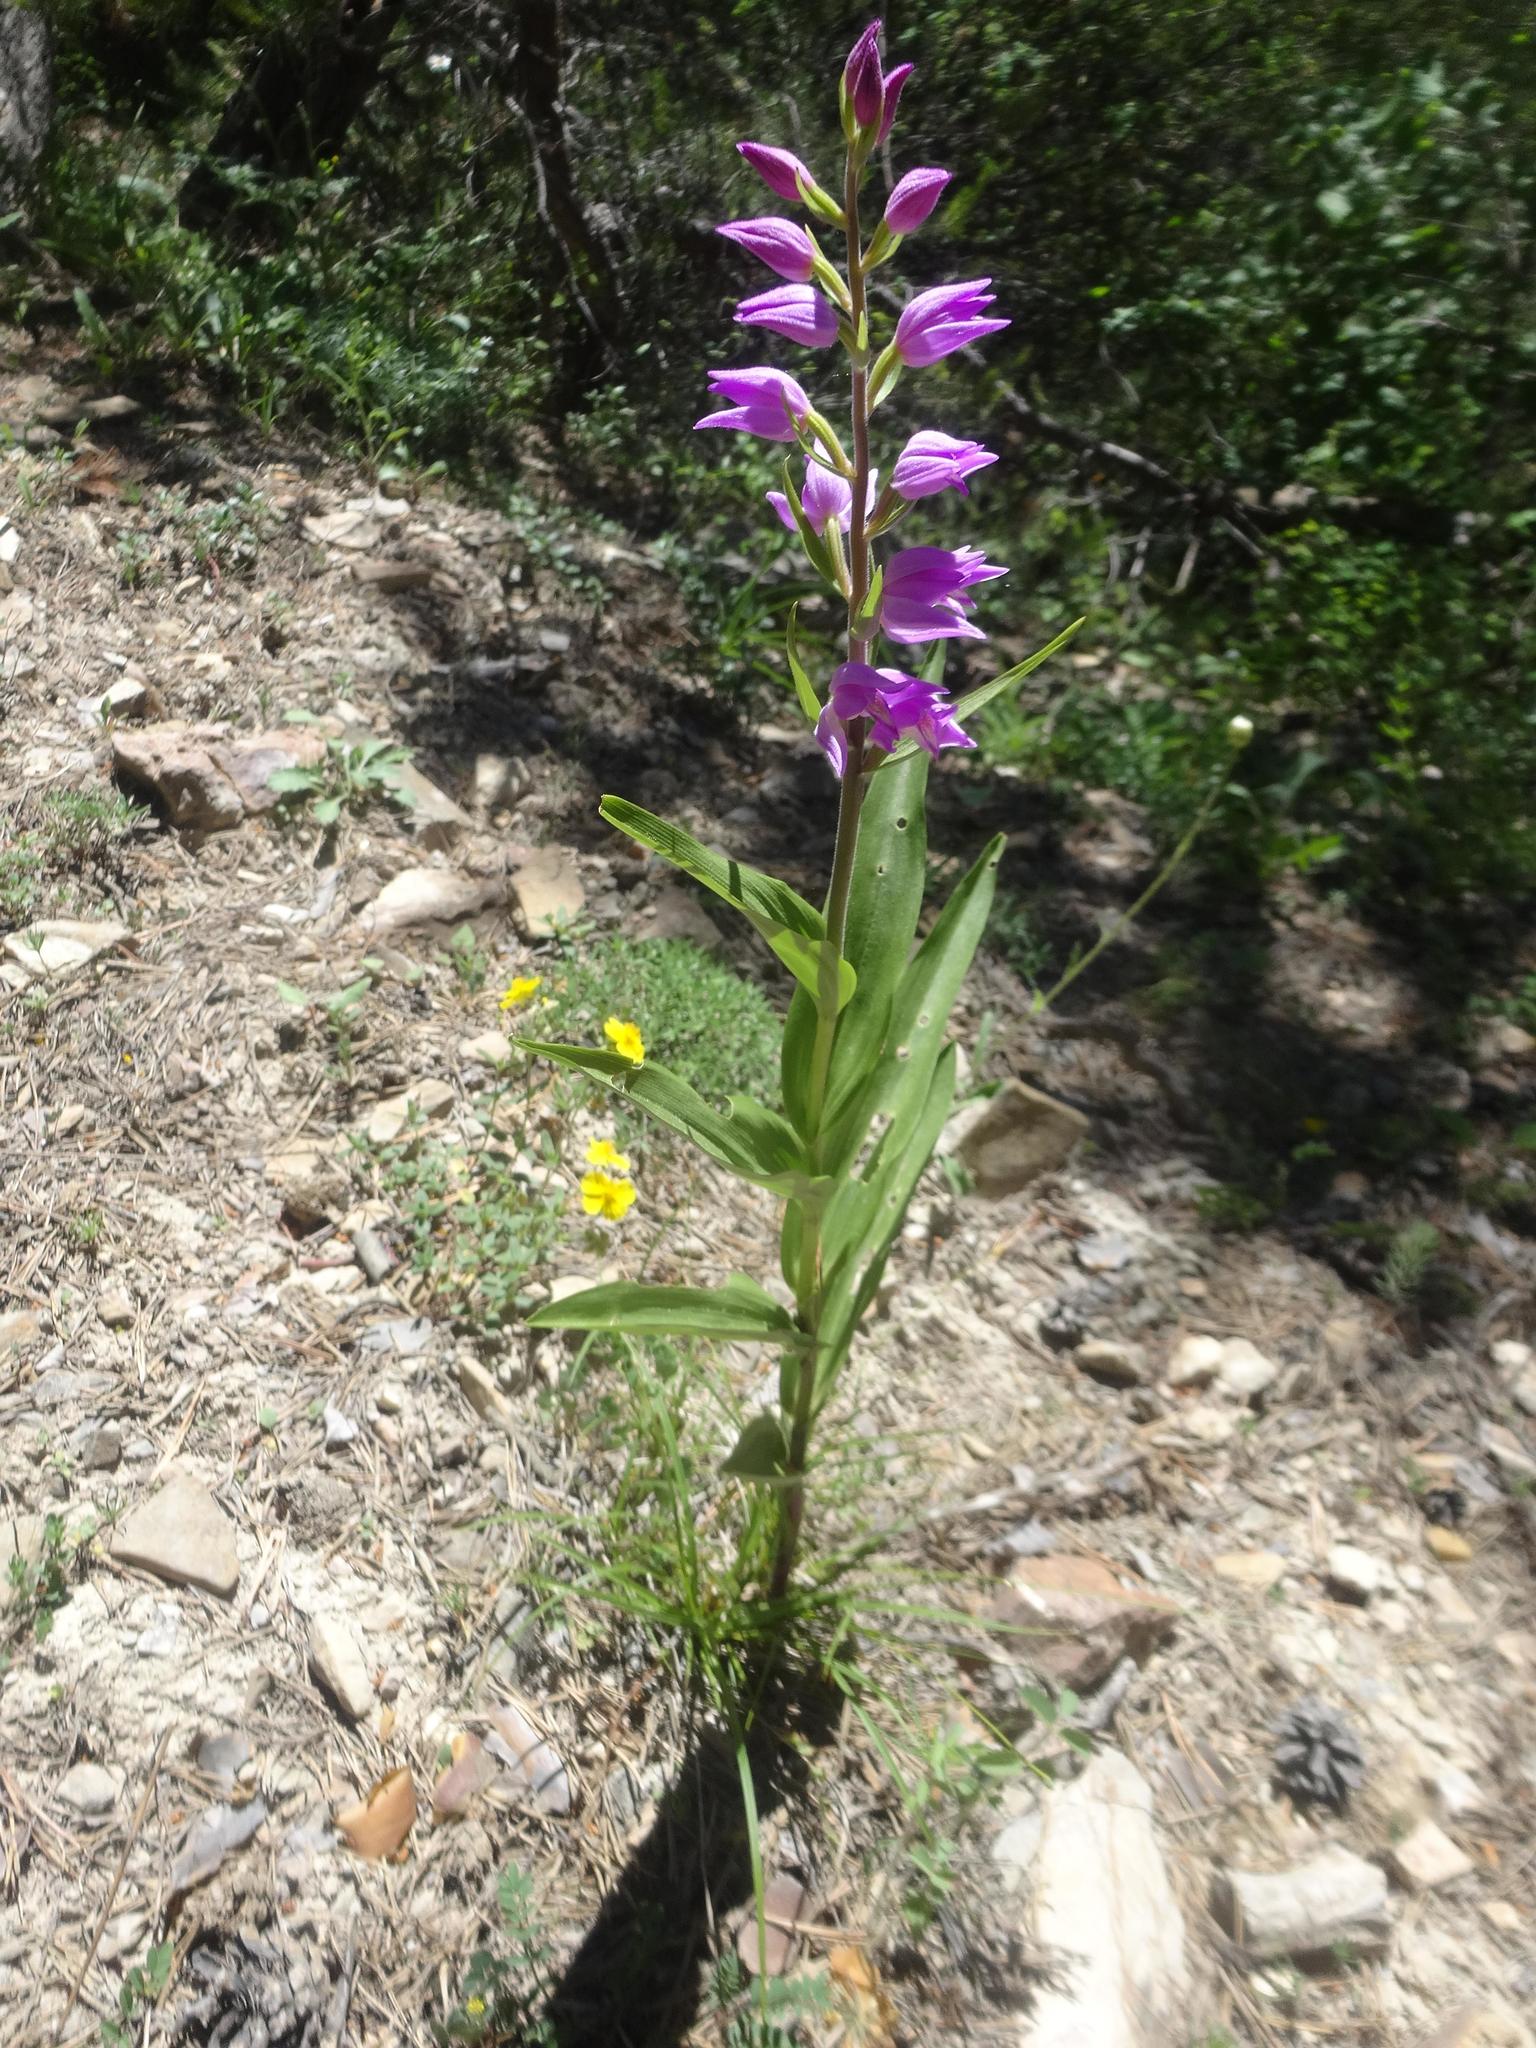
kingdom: Plantae
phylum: Tracheophyta
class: Liliopsida
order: Asparagales
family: Orchidaceae
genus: Cephalanthera
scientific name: Cephalanthera rubra
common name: Red helleborine
